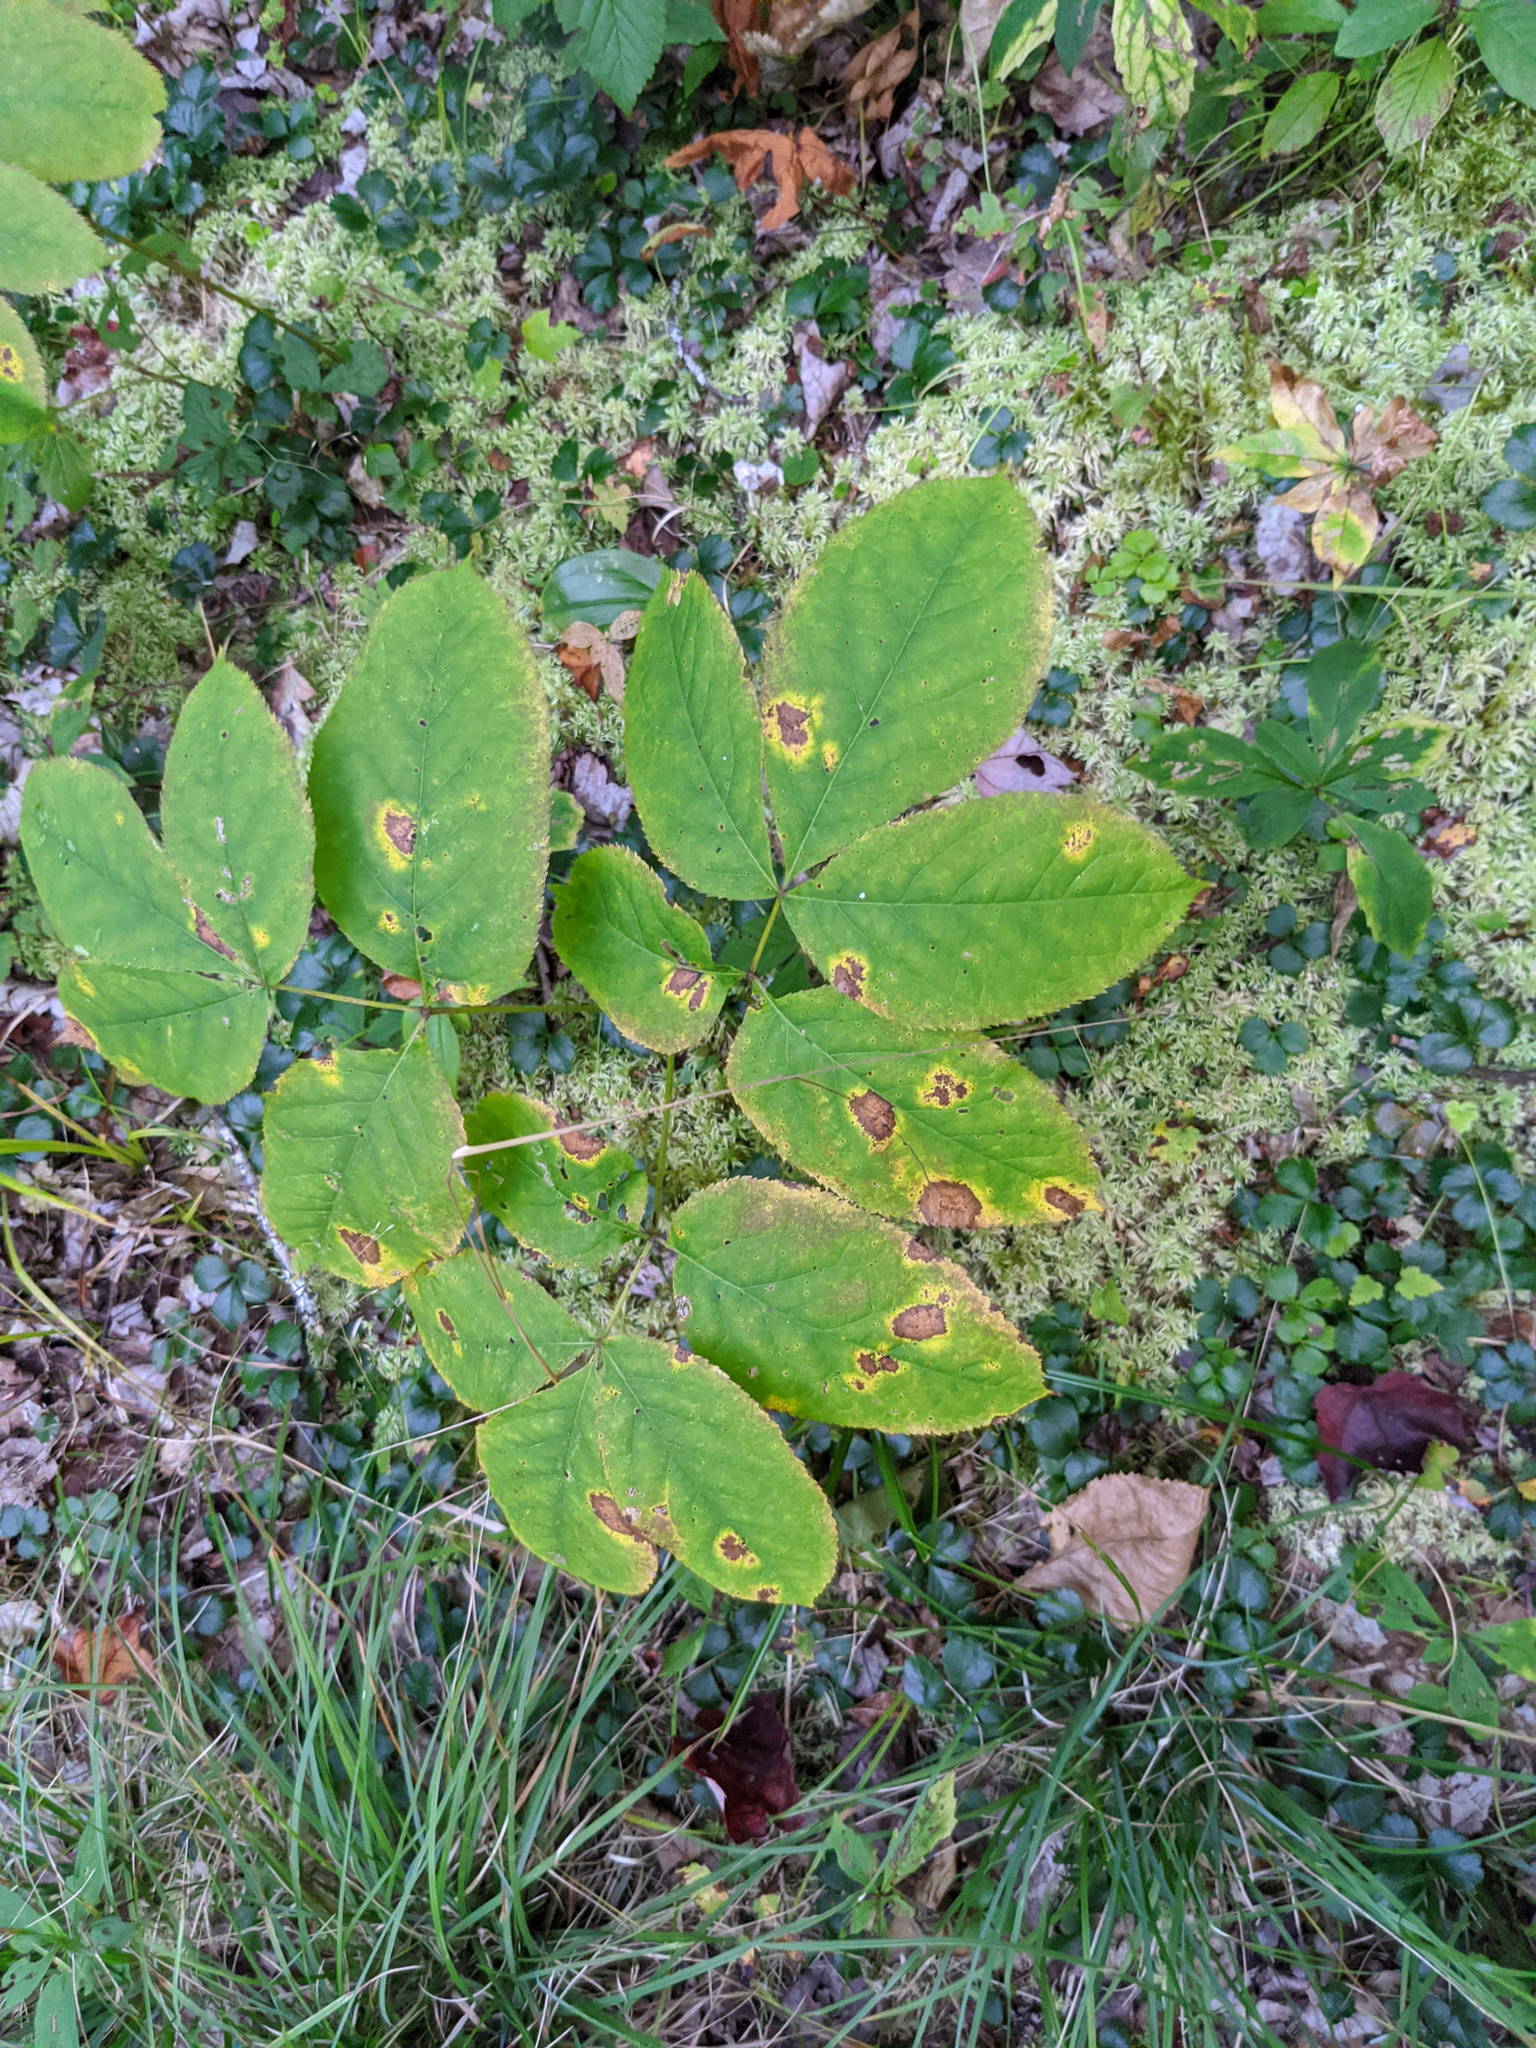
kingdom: Plantae
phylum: Tracheophyta
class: Magnoliopsida
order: Apiales
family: Araliaceae
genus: Aralia
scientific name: Aralia nudicaulis
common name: Wild sarsaparilla
